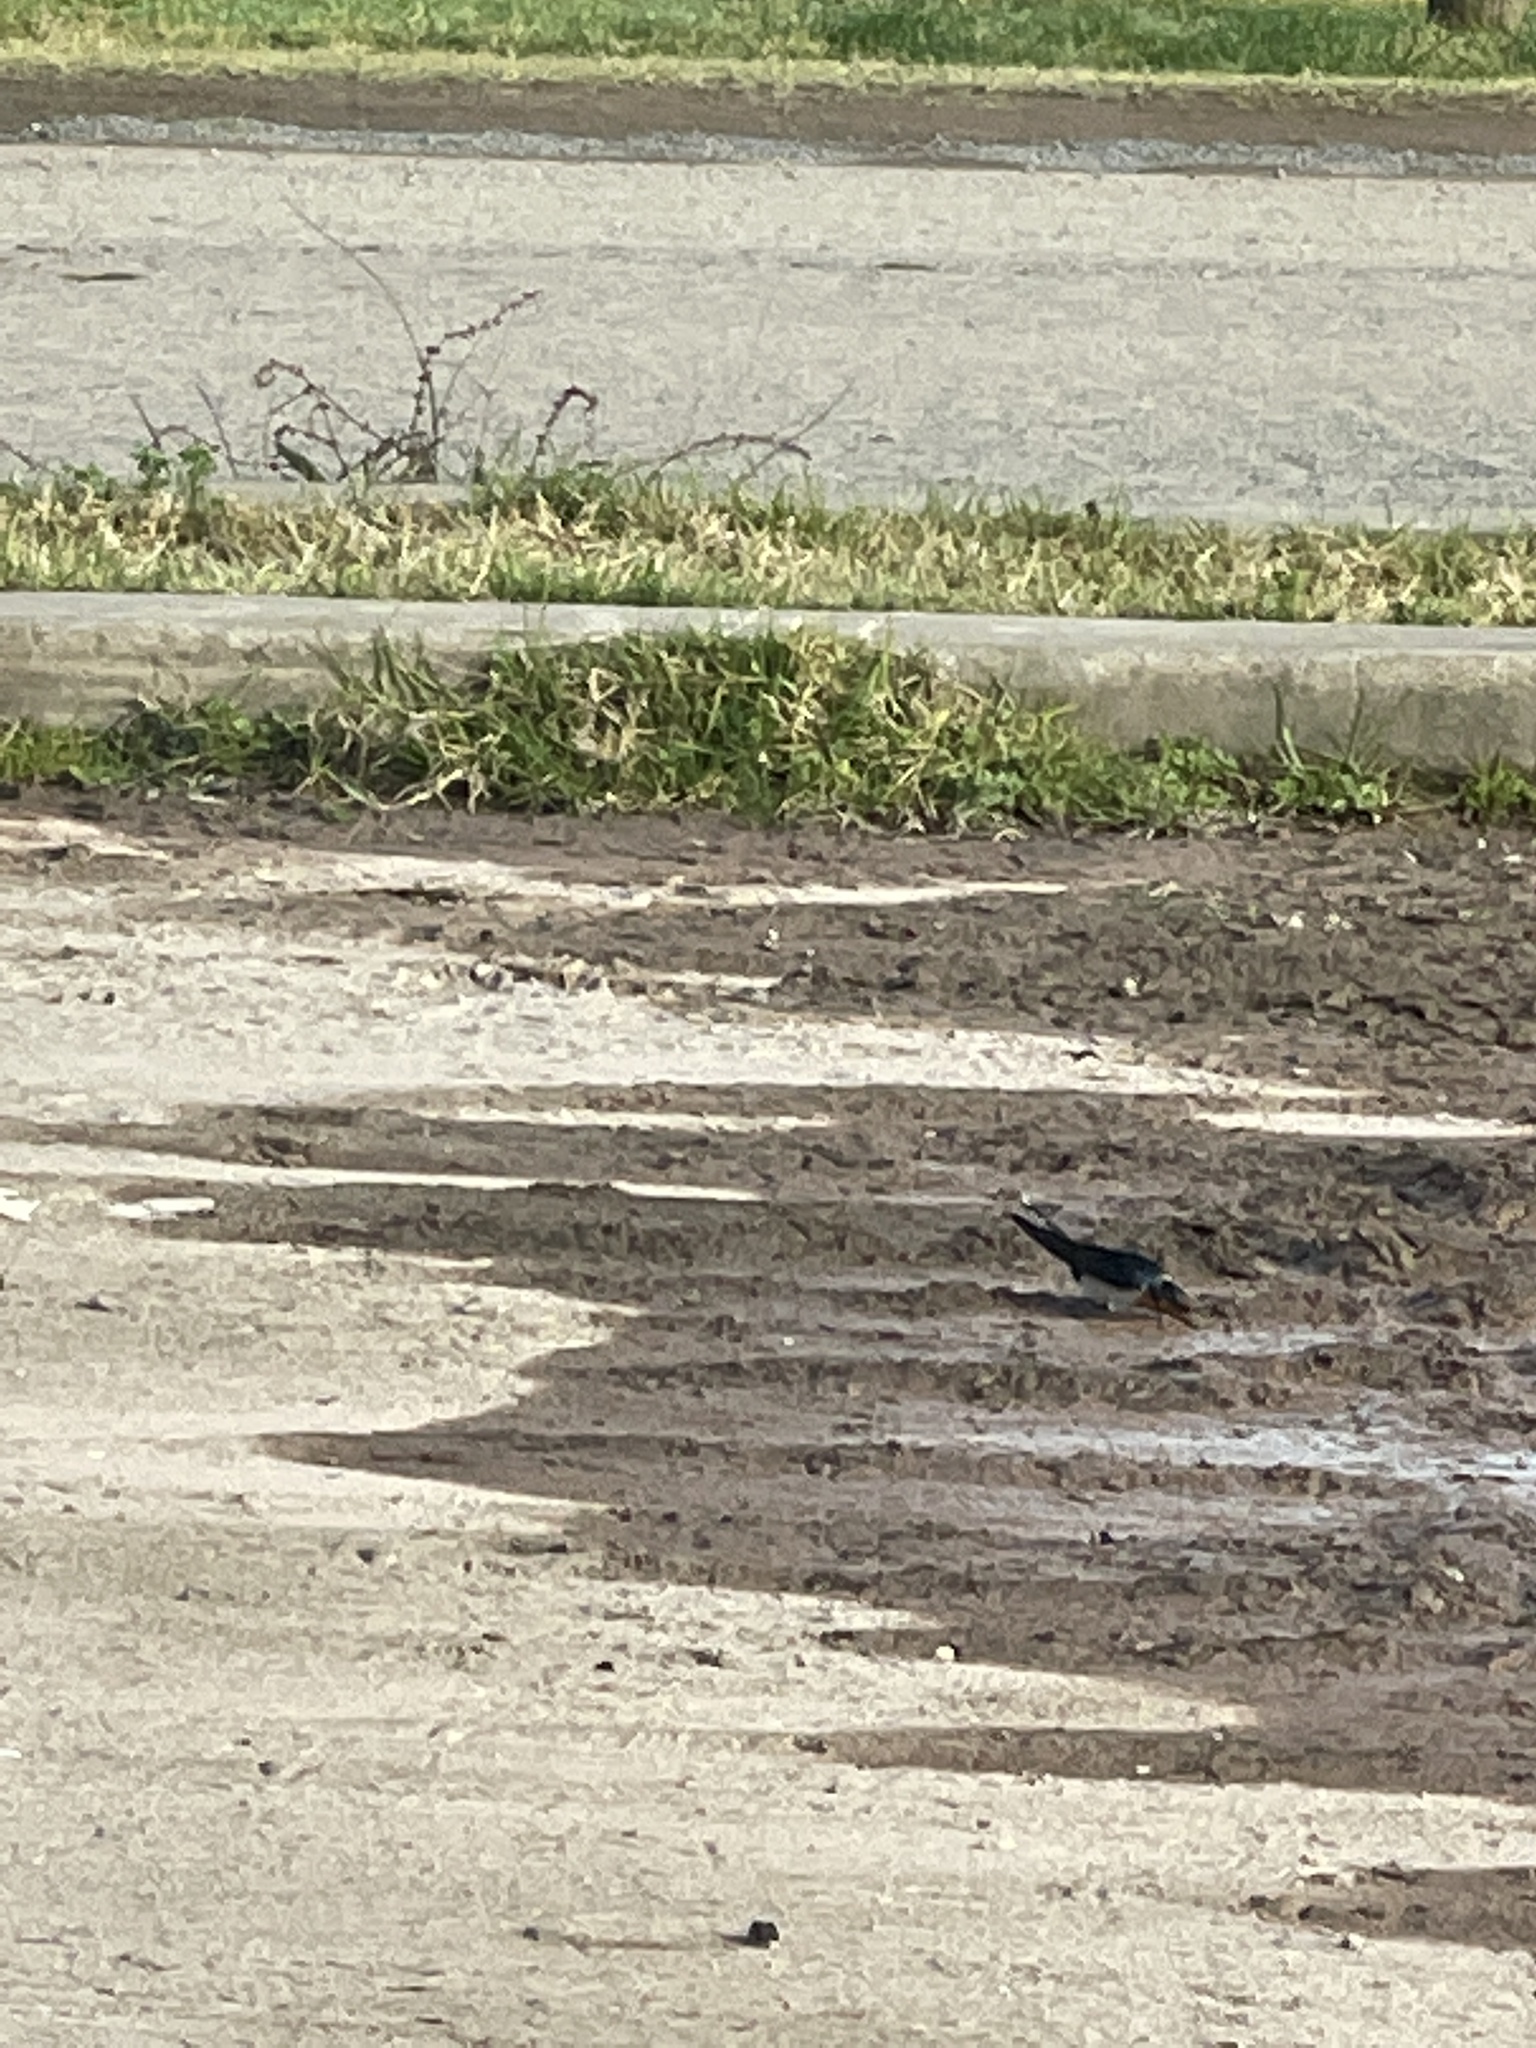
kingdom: Animalia
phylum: Chordata
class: Aves
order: Passeriformes
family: Hirundinidae
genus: Hirundo
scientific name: Hirundo neoxena
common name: Welcome swallow
